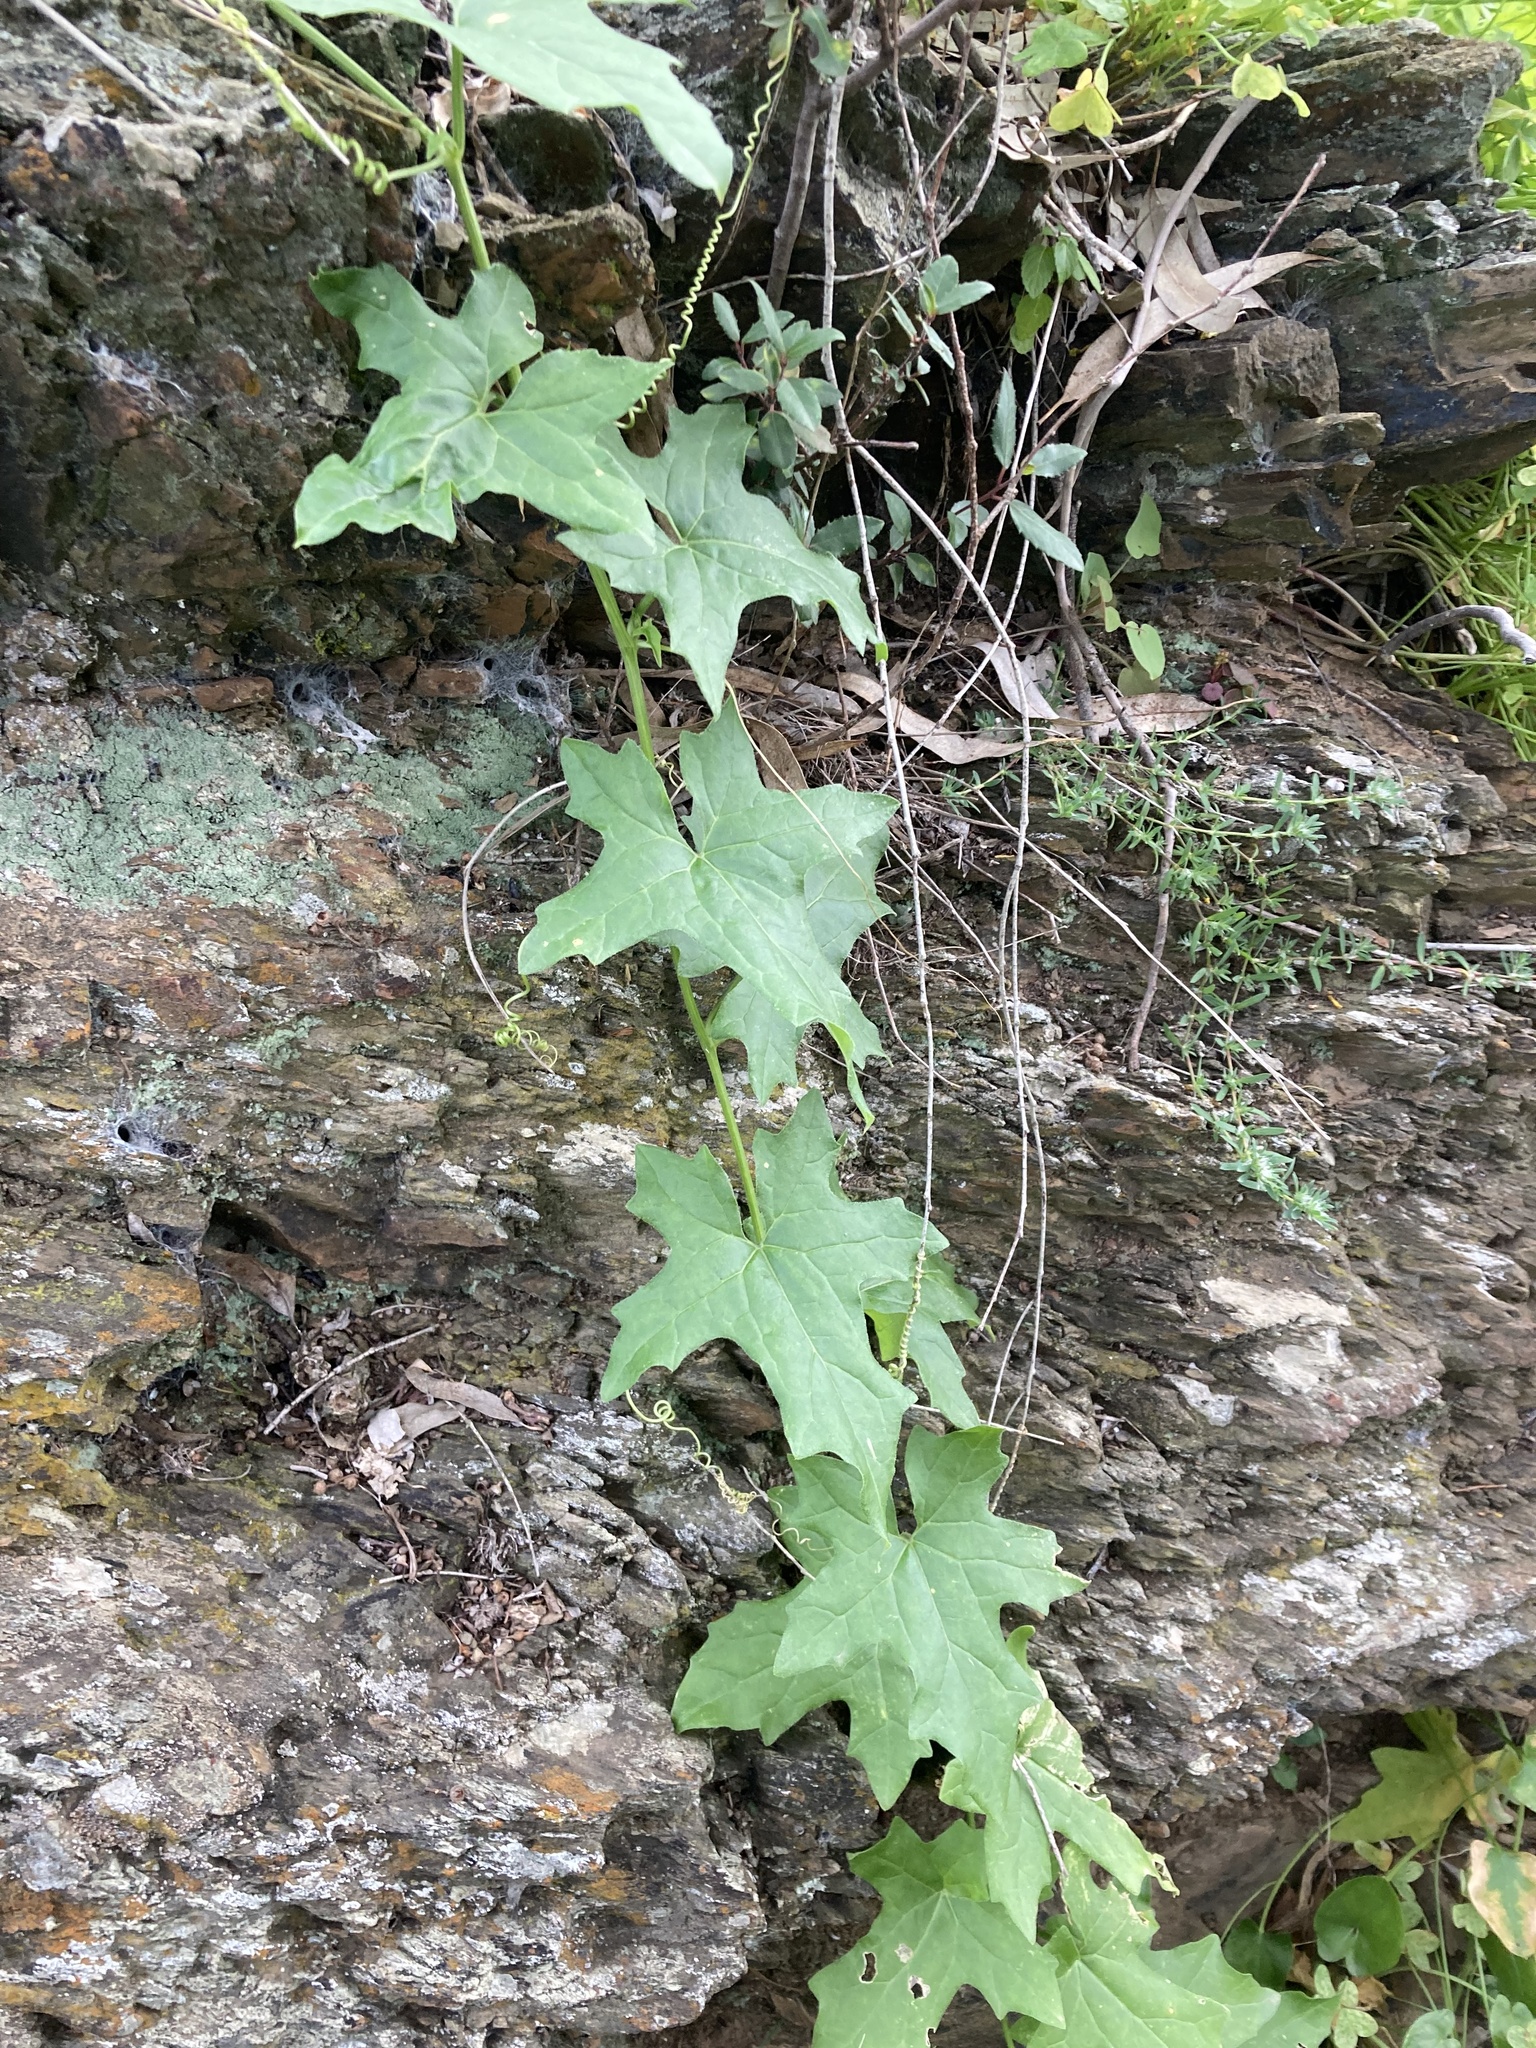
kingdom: Plantae
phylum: Tracheophyta
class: Magnoliopsida
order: Cucurbitales
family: Cucurbitaceae
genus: Bryonia
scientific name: Bryonia cretica
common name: Cretan bryony
